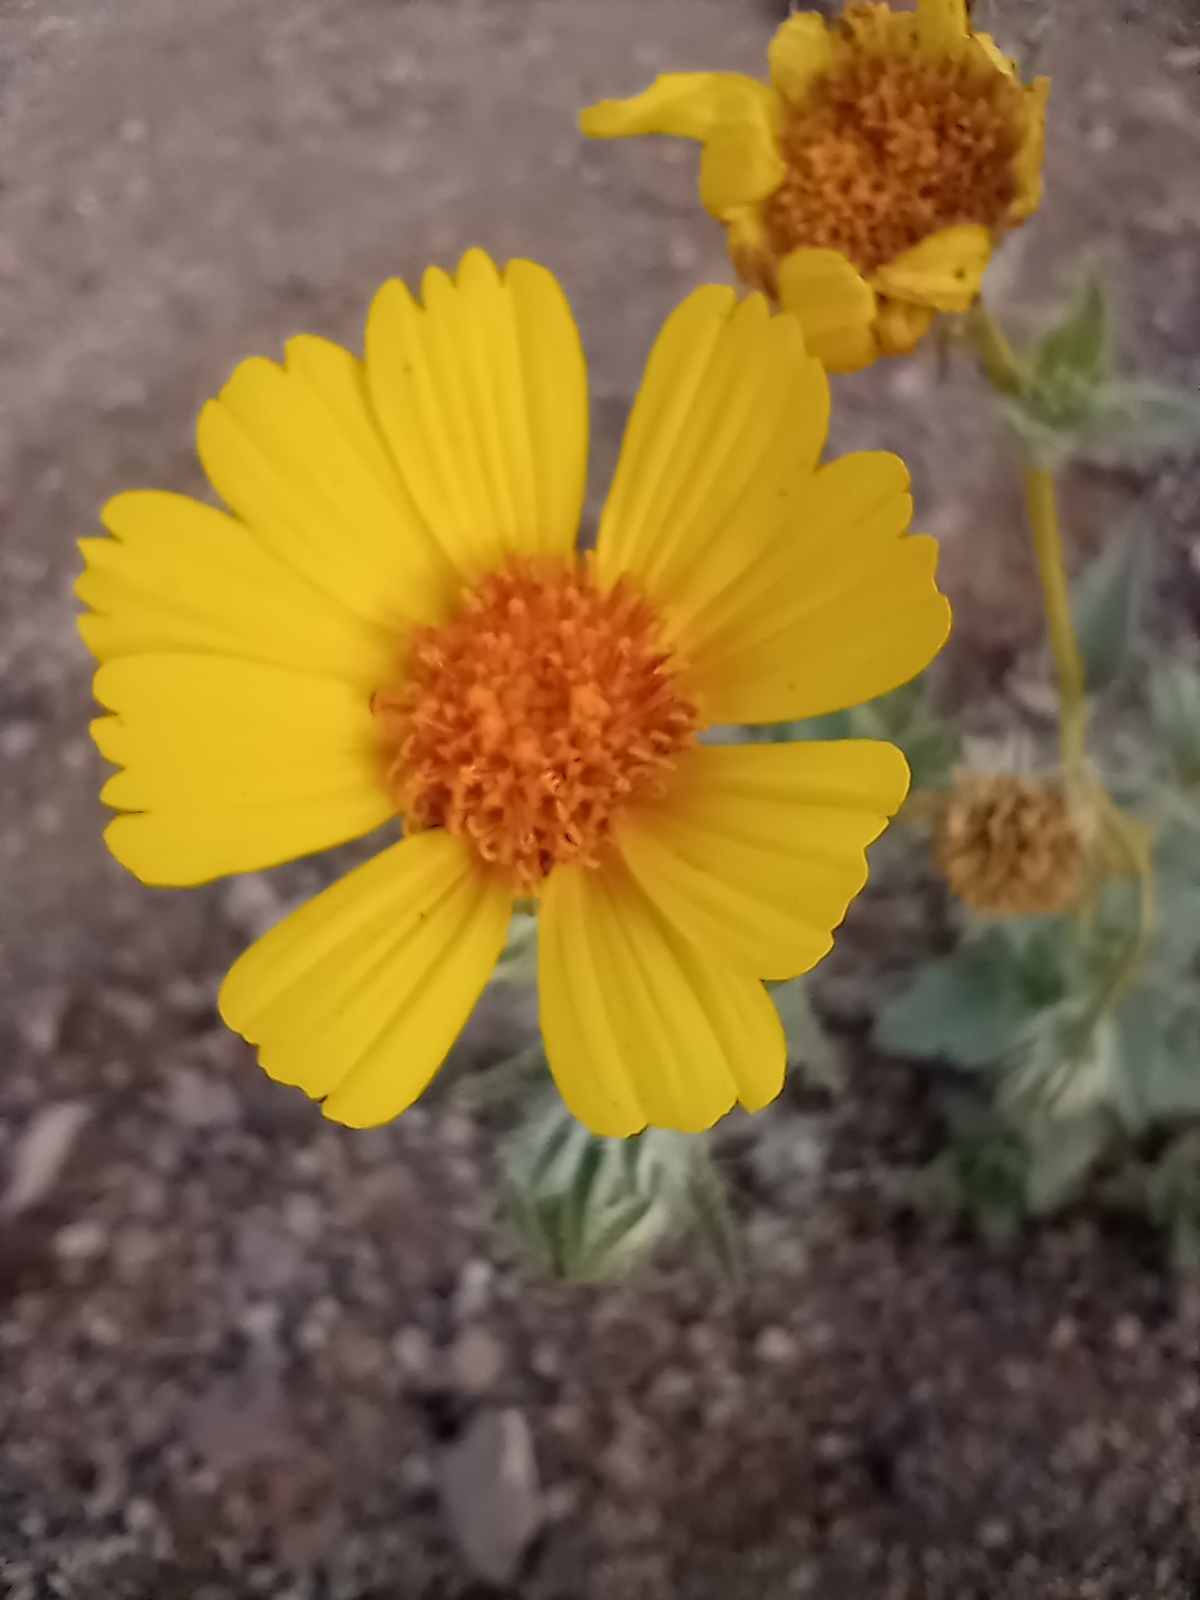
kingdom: Plantae
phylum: Tracheophyta
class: Magnoliopsida
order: Asterales
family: Asteraceae
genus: Geraea
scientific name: Geraea canescens
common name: Desert-gold
